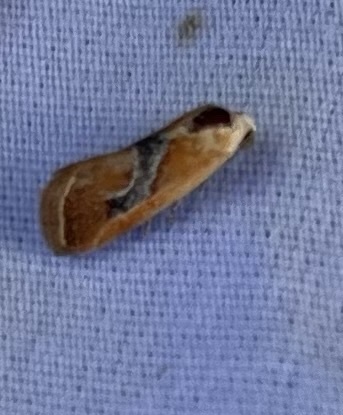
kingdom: Animalia
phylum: Arthropoda
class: Insecta
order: Lepidoptera
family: Noctuidae
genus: Ponometia
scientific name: Ponometia venustula
